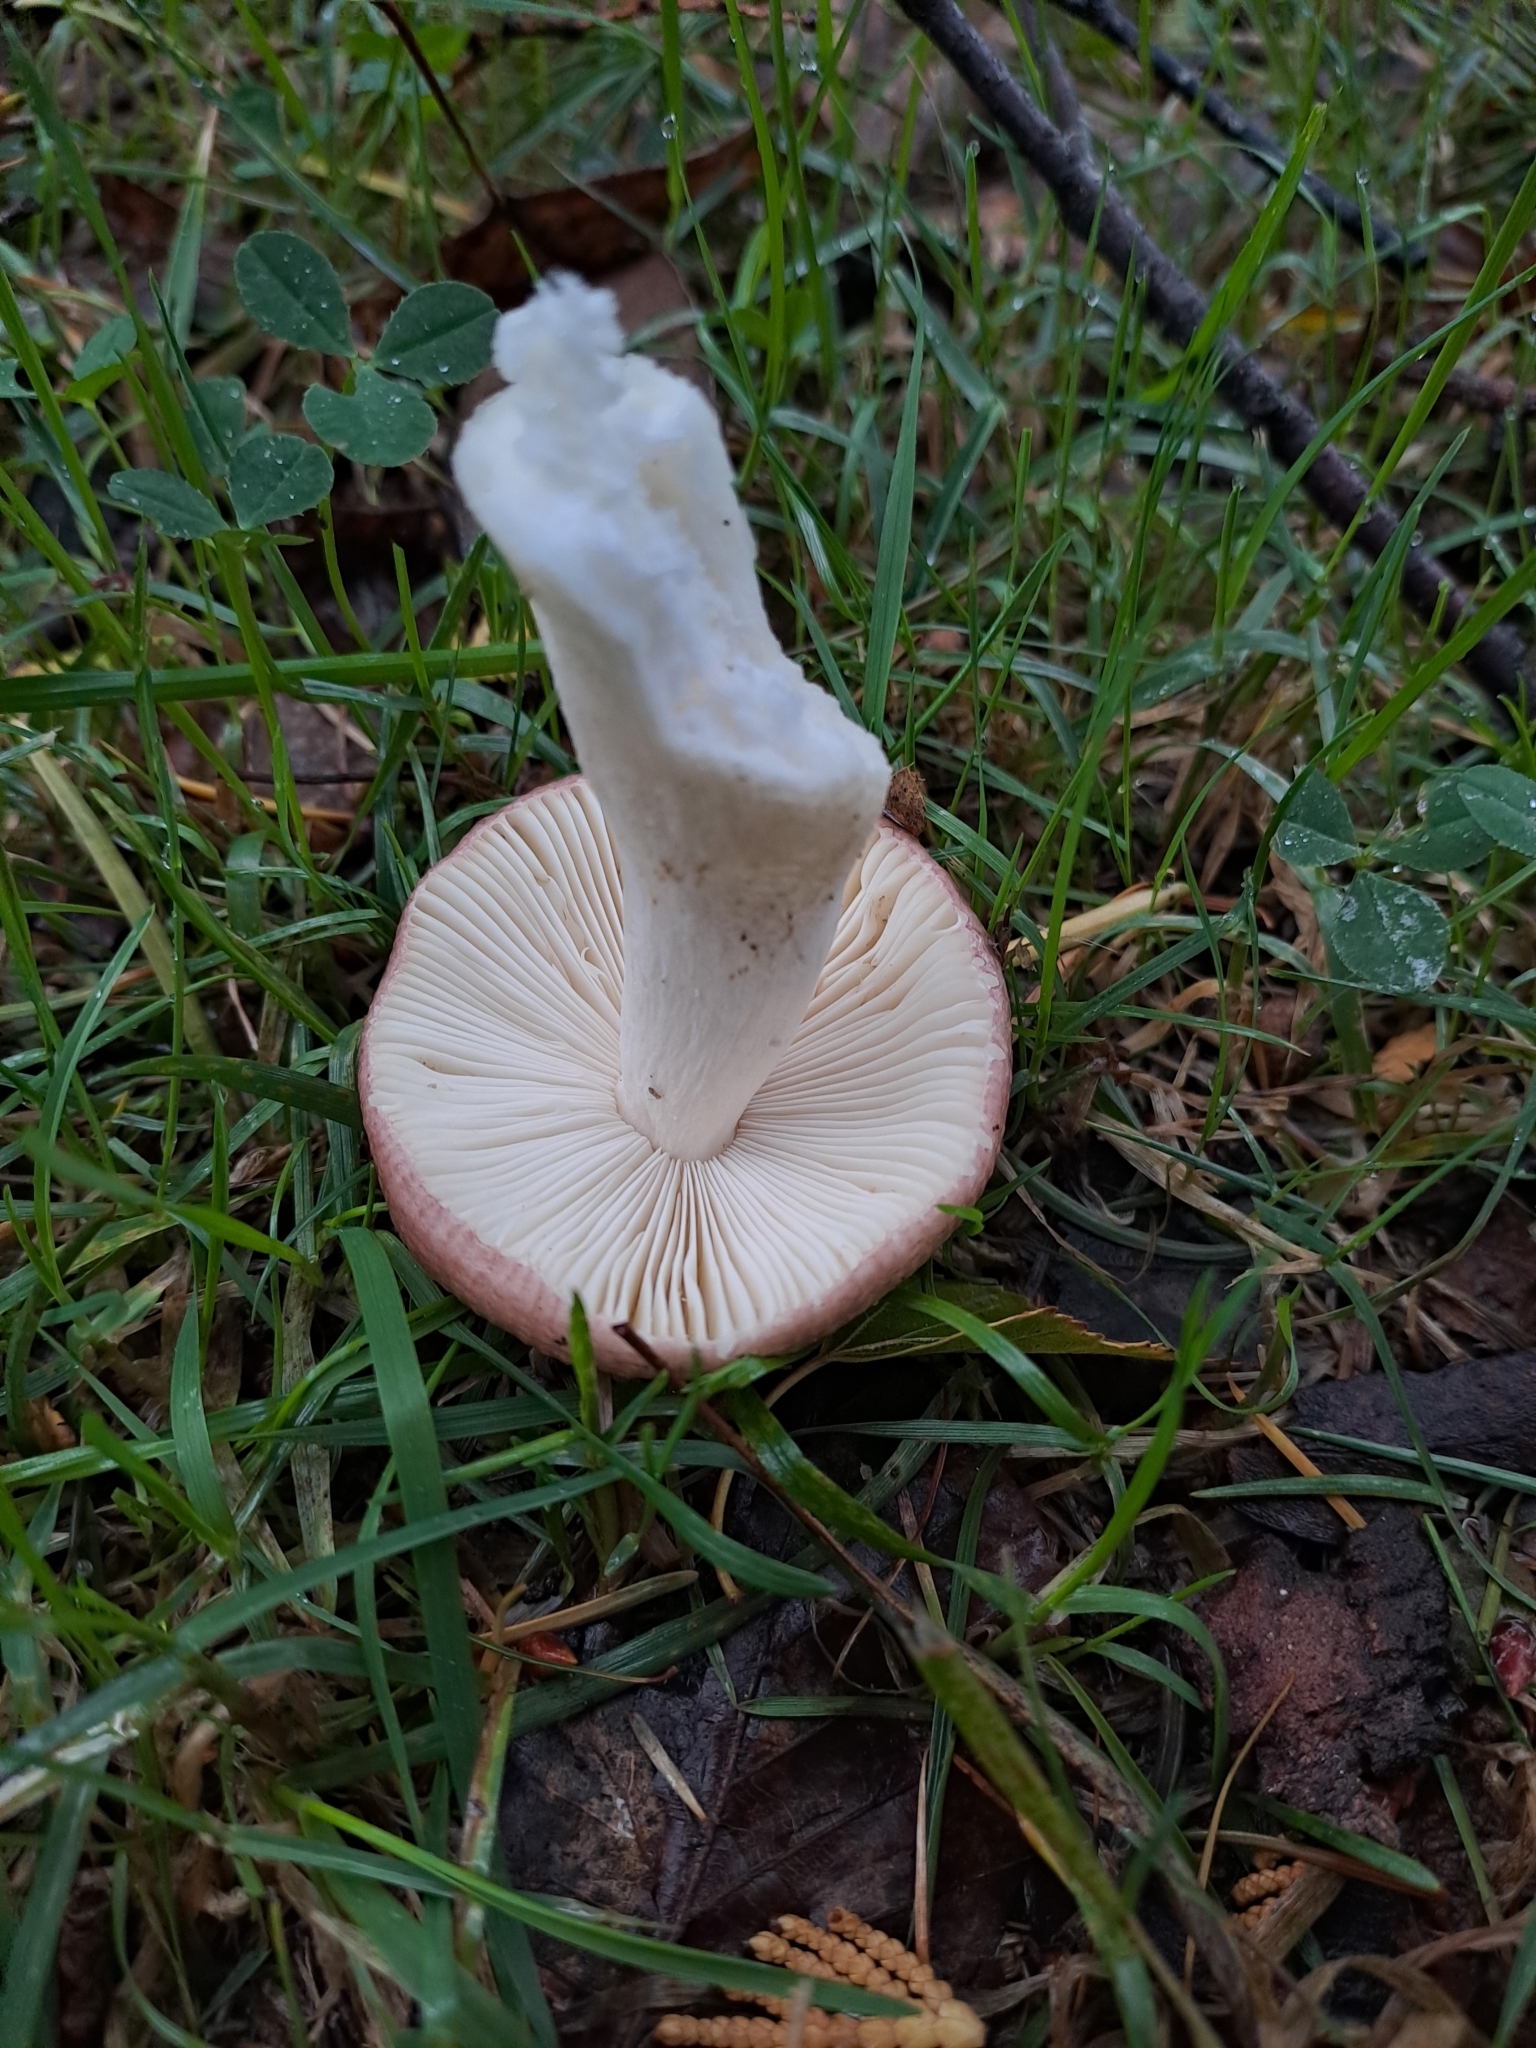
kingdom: Fungi
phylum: Basidiomycota
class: Agaricomycetes
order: Russulales
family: Russulaceae
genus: Russula
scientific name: Russula nitida
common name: Purple swamp brittlegill
